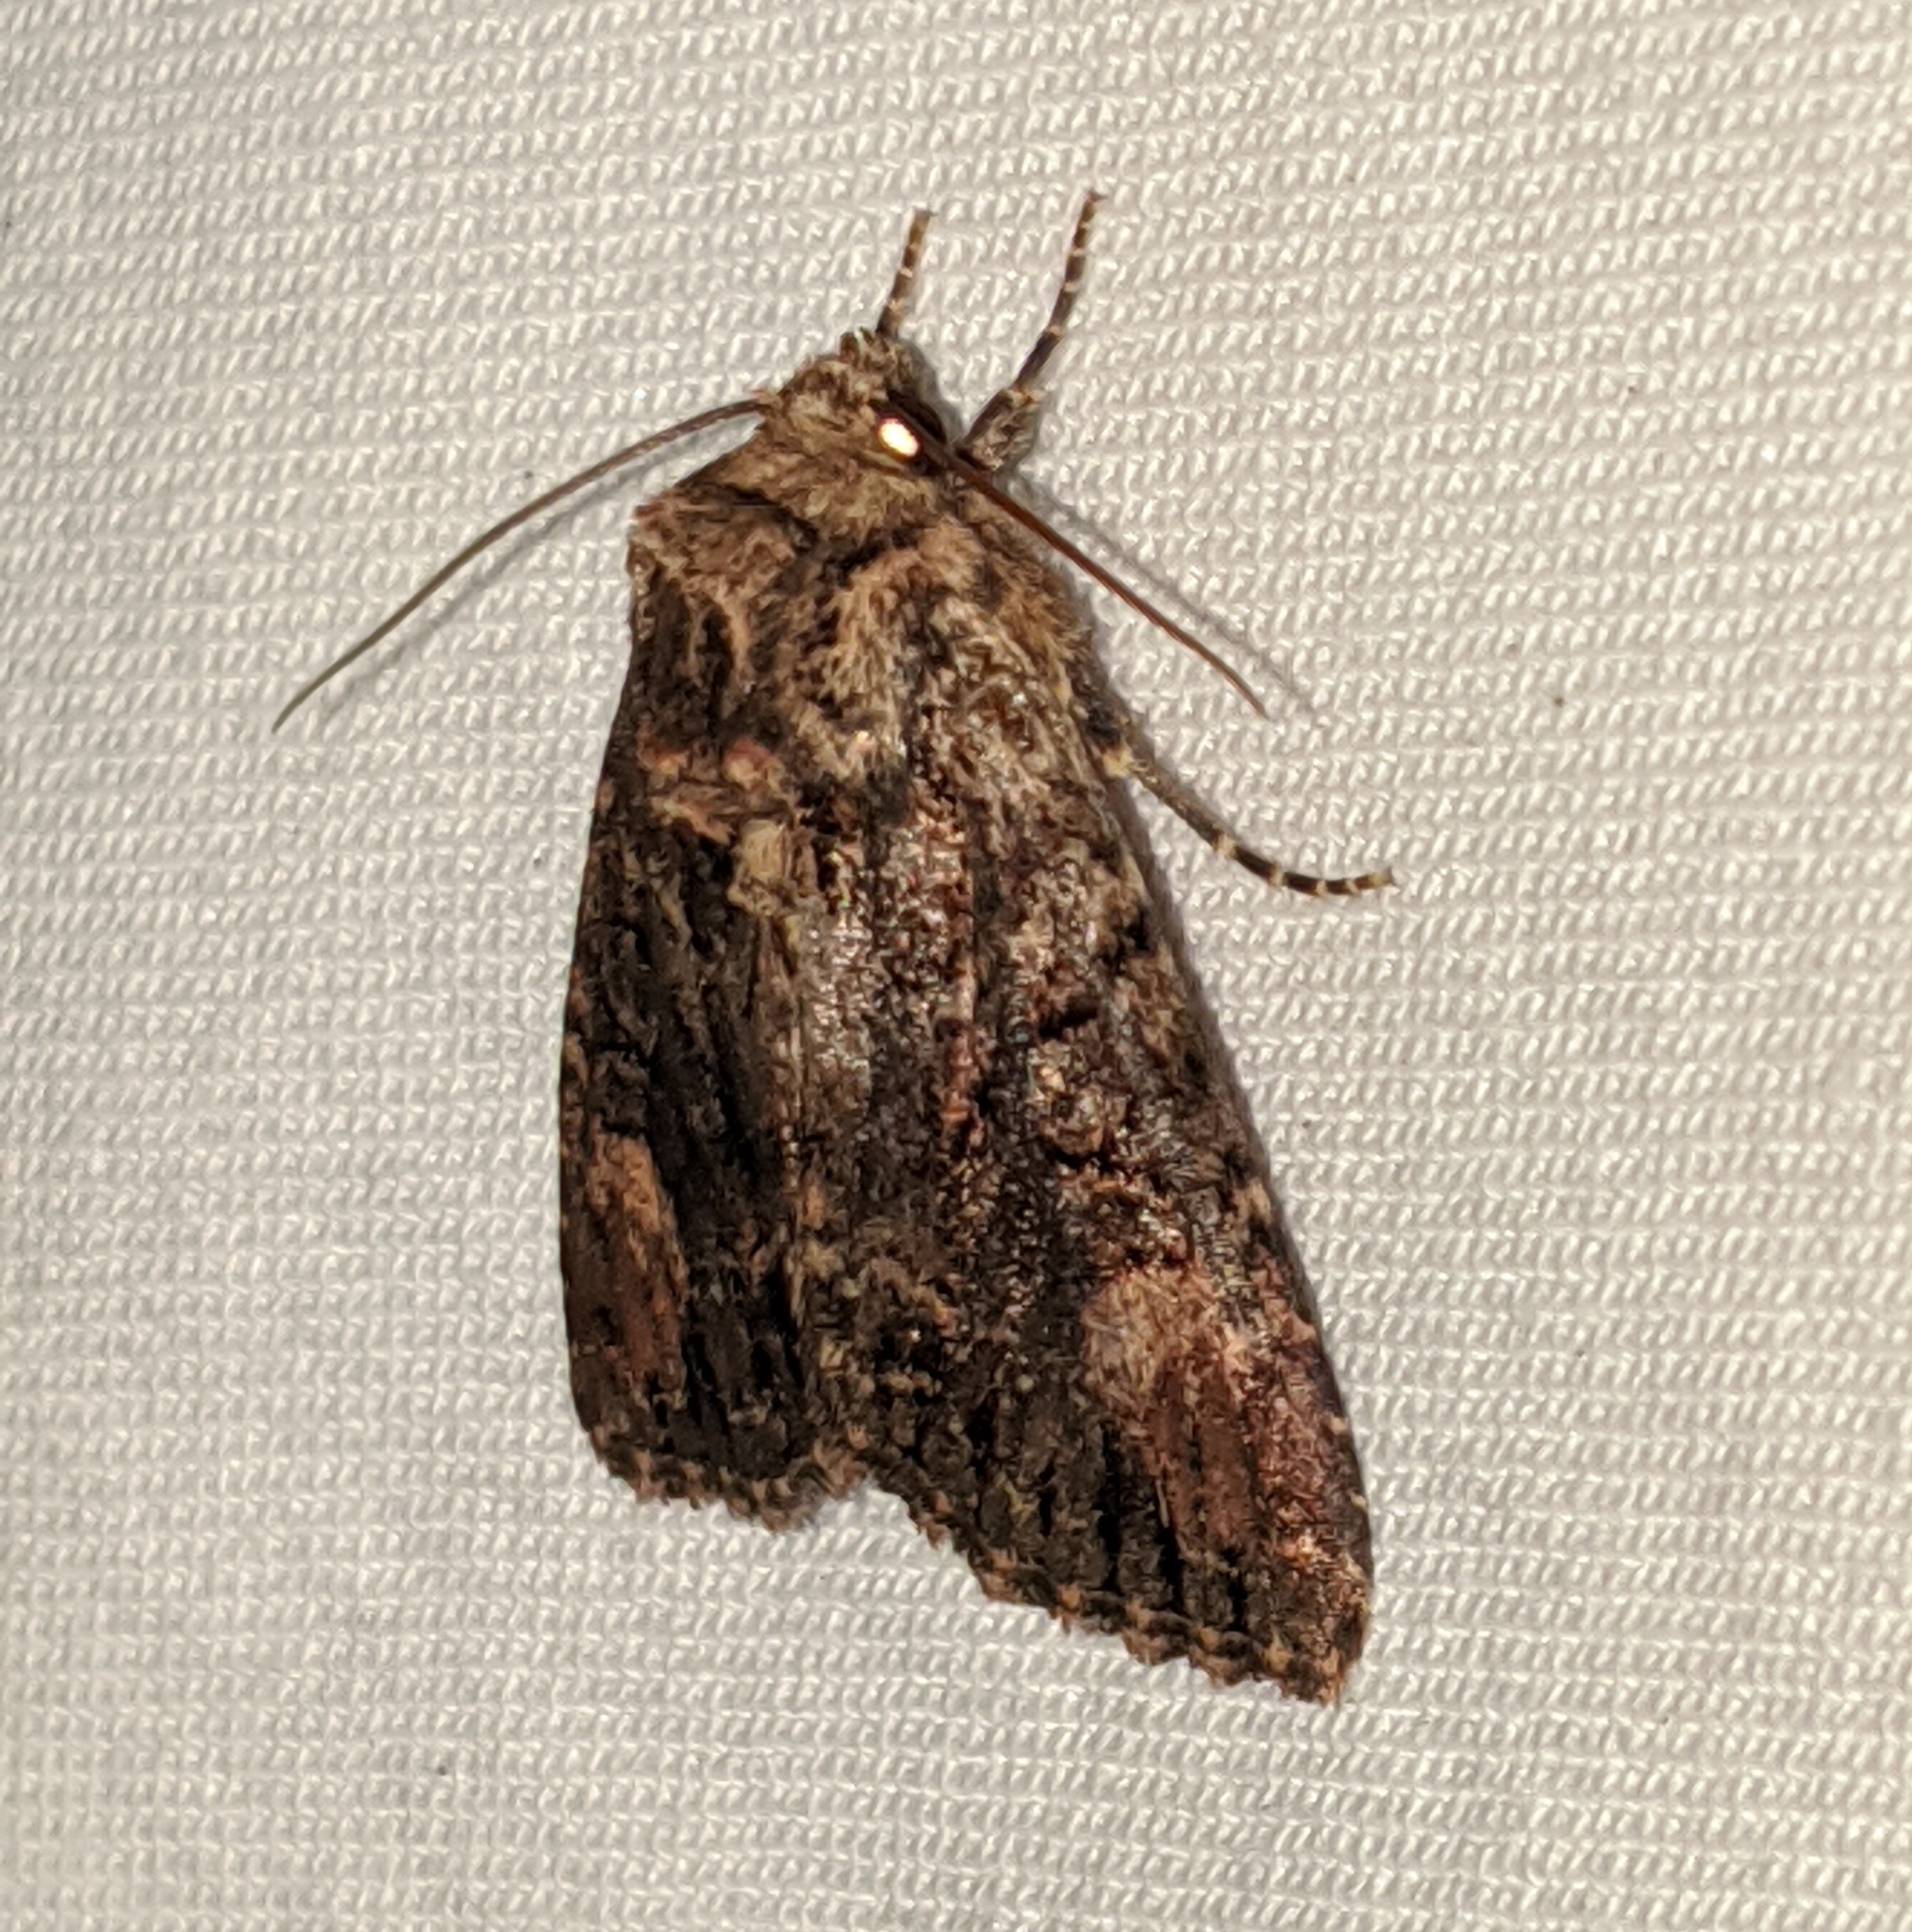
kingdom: Animalia
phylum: Arthropoda
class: Insecta
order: Lepidoptera
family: Noctuidae
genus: Aseptis
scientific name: Aseptis binotata
